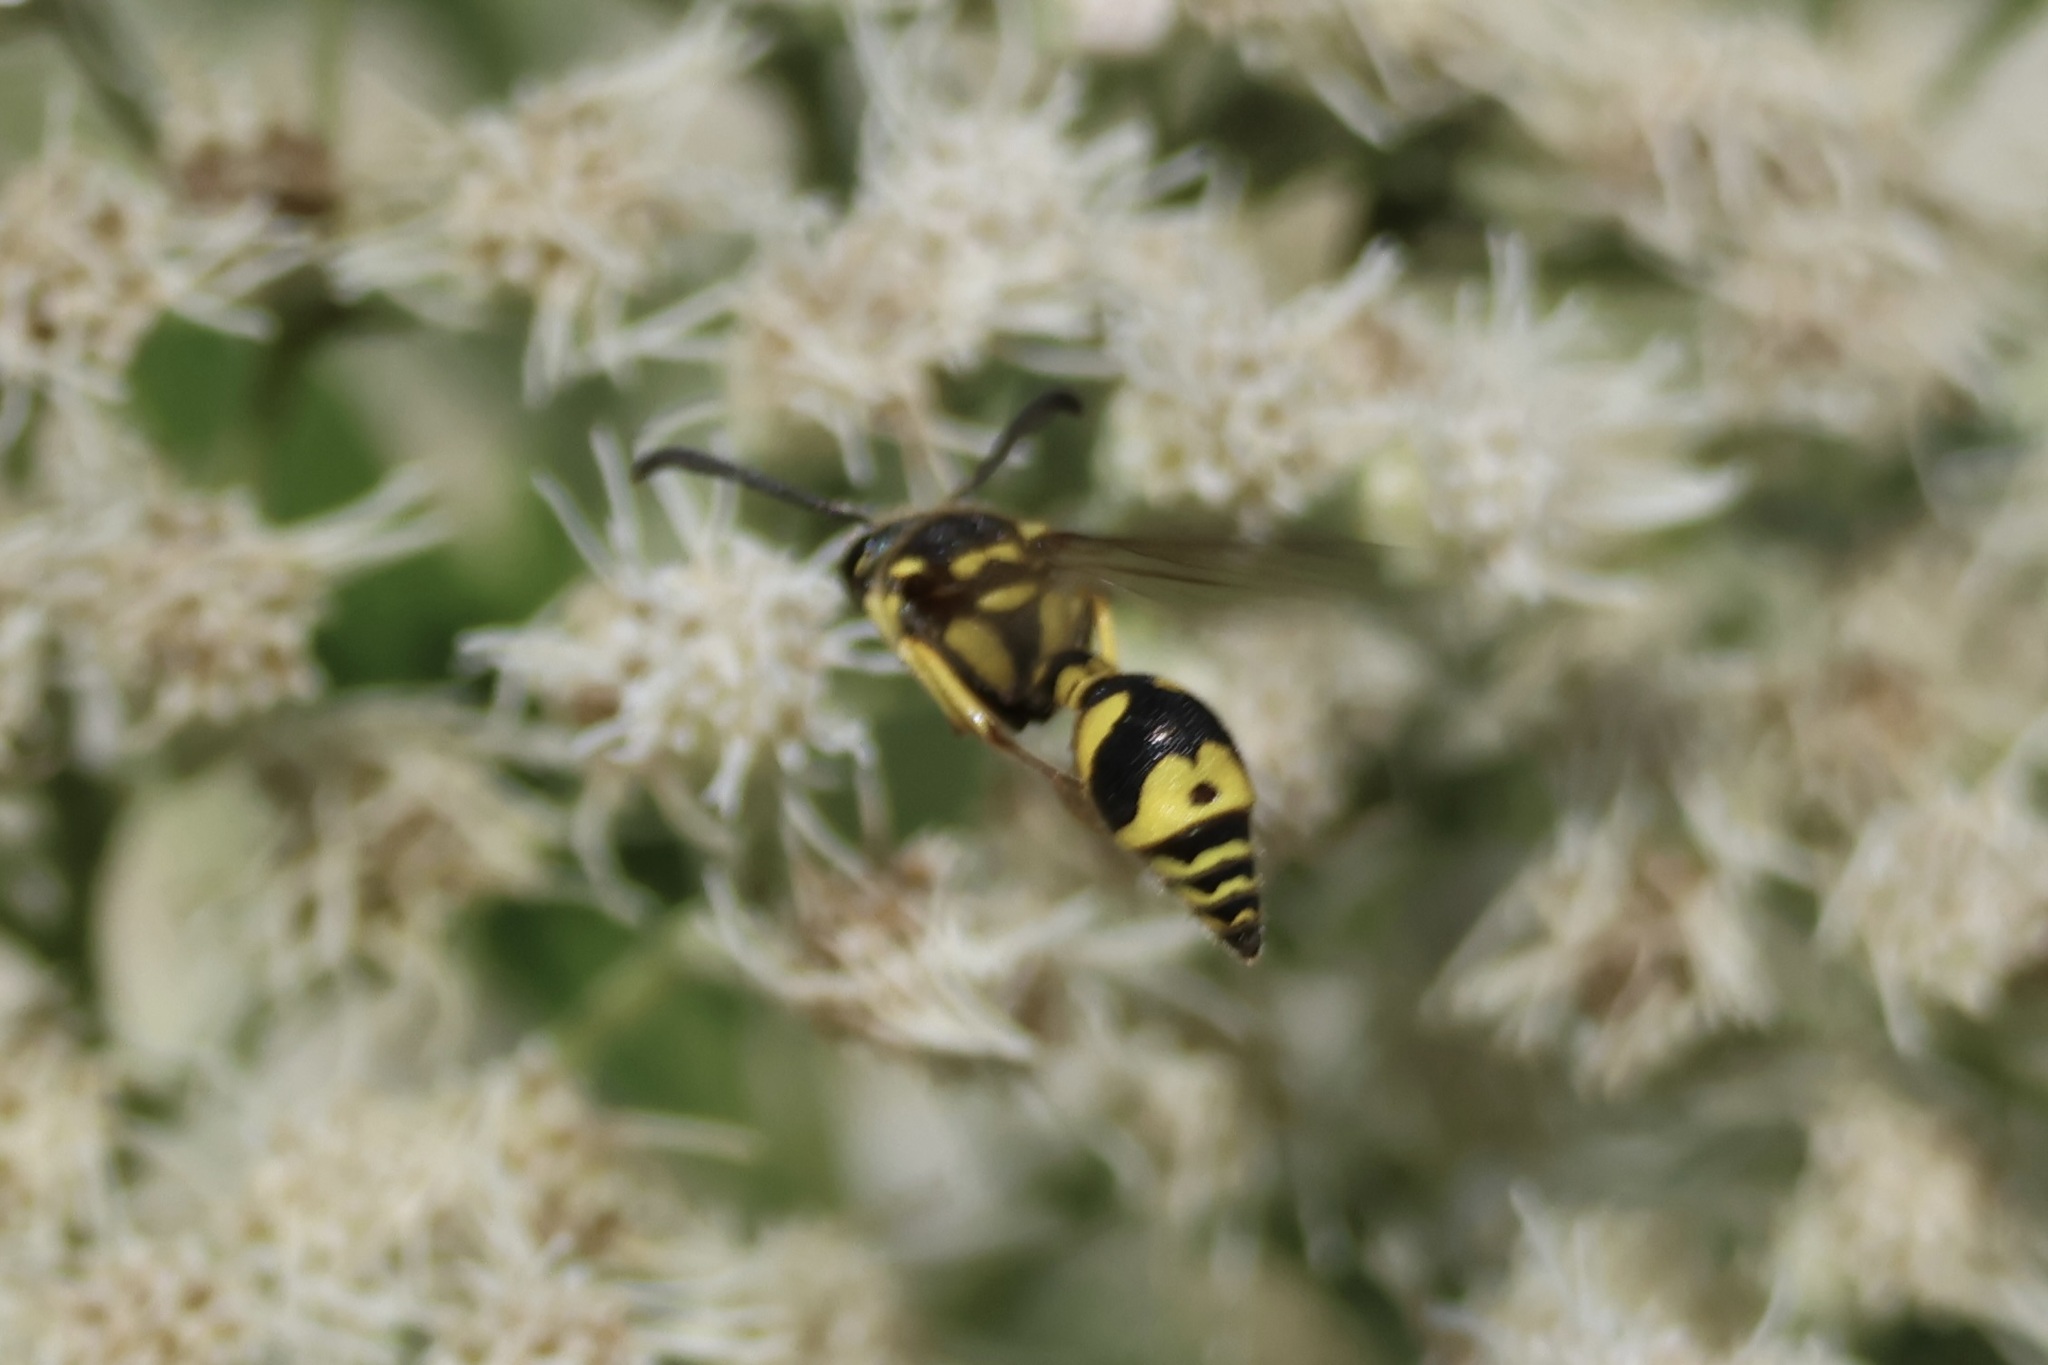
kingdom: Animalia
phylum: Arthropoda
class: Insecta
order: Hymenoptera
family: Vespidae
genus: Eumenes
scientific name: Eumenes mediterraneus
